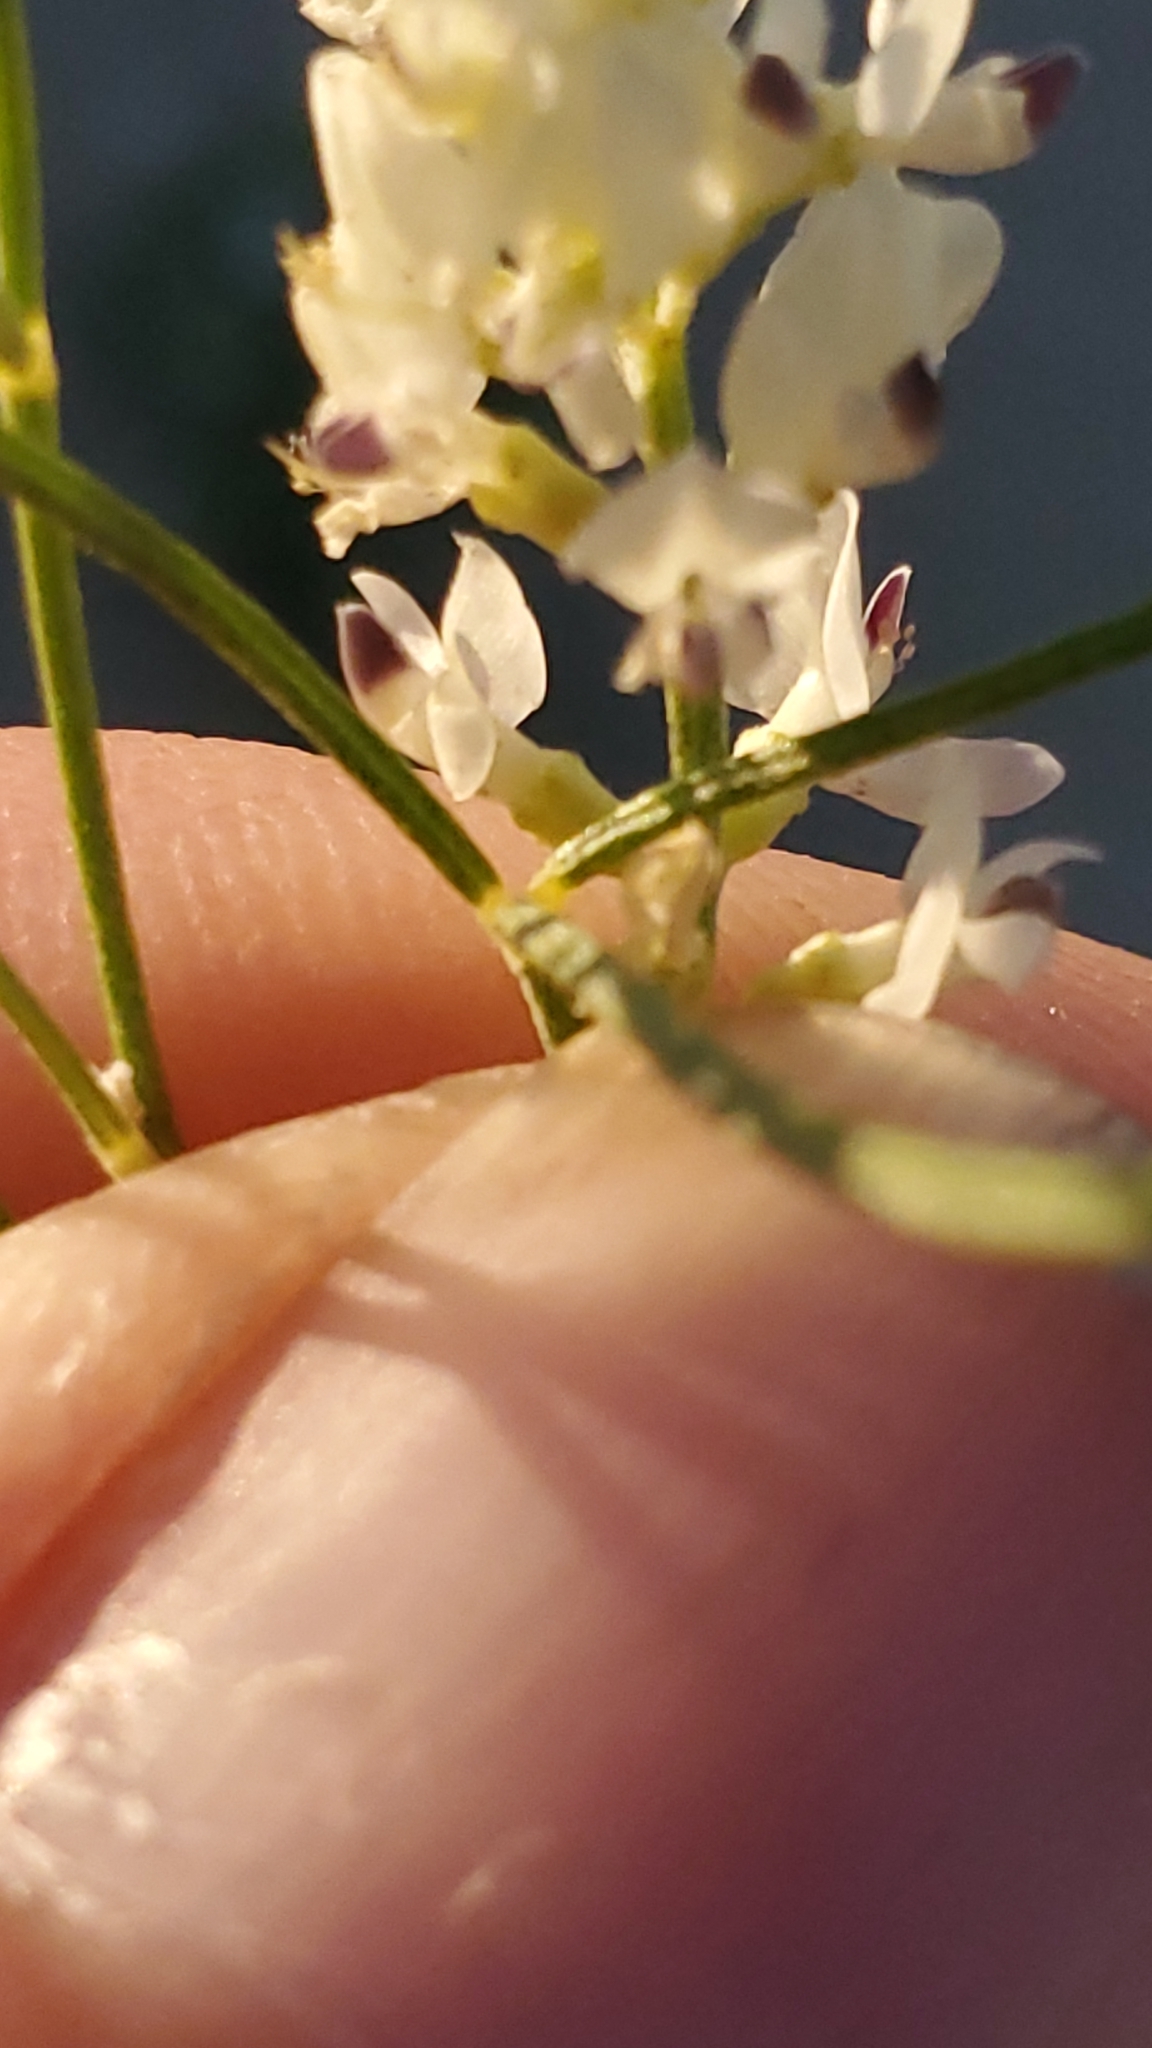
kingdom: Plantae
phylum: Tracheophyta
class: Magnoliopsida
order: Fabales
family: Fabaceae
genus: Ladeania
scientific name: Ladeania lanceolata
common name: Dune scurf-pea
